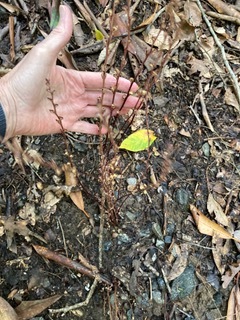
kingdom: Plantae
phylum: Tracheophyta
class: Magnoliopsida
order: Lamiales
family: Orobanchaceae
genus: Epifagus
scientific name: Epifagus virginiana
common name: Beechdrops
